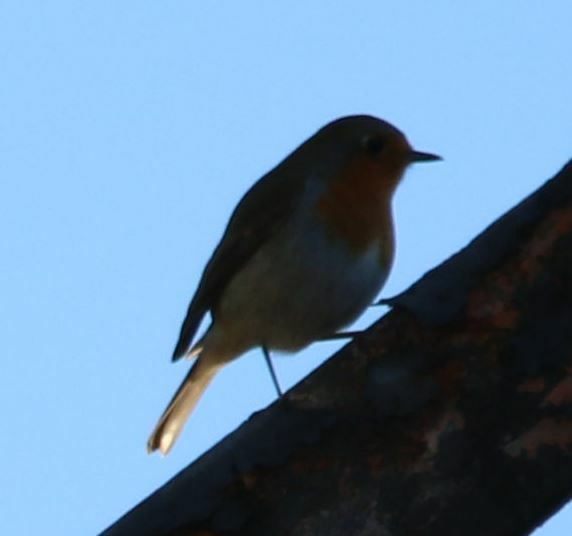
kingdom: Animalia
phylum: Chordata
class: Aves
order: Passeriformes
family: Muscicapidae
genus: Erithacus
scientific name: Erithacus rubecula
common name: European robin
